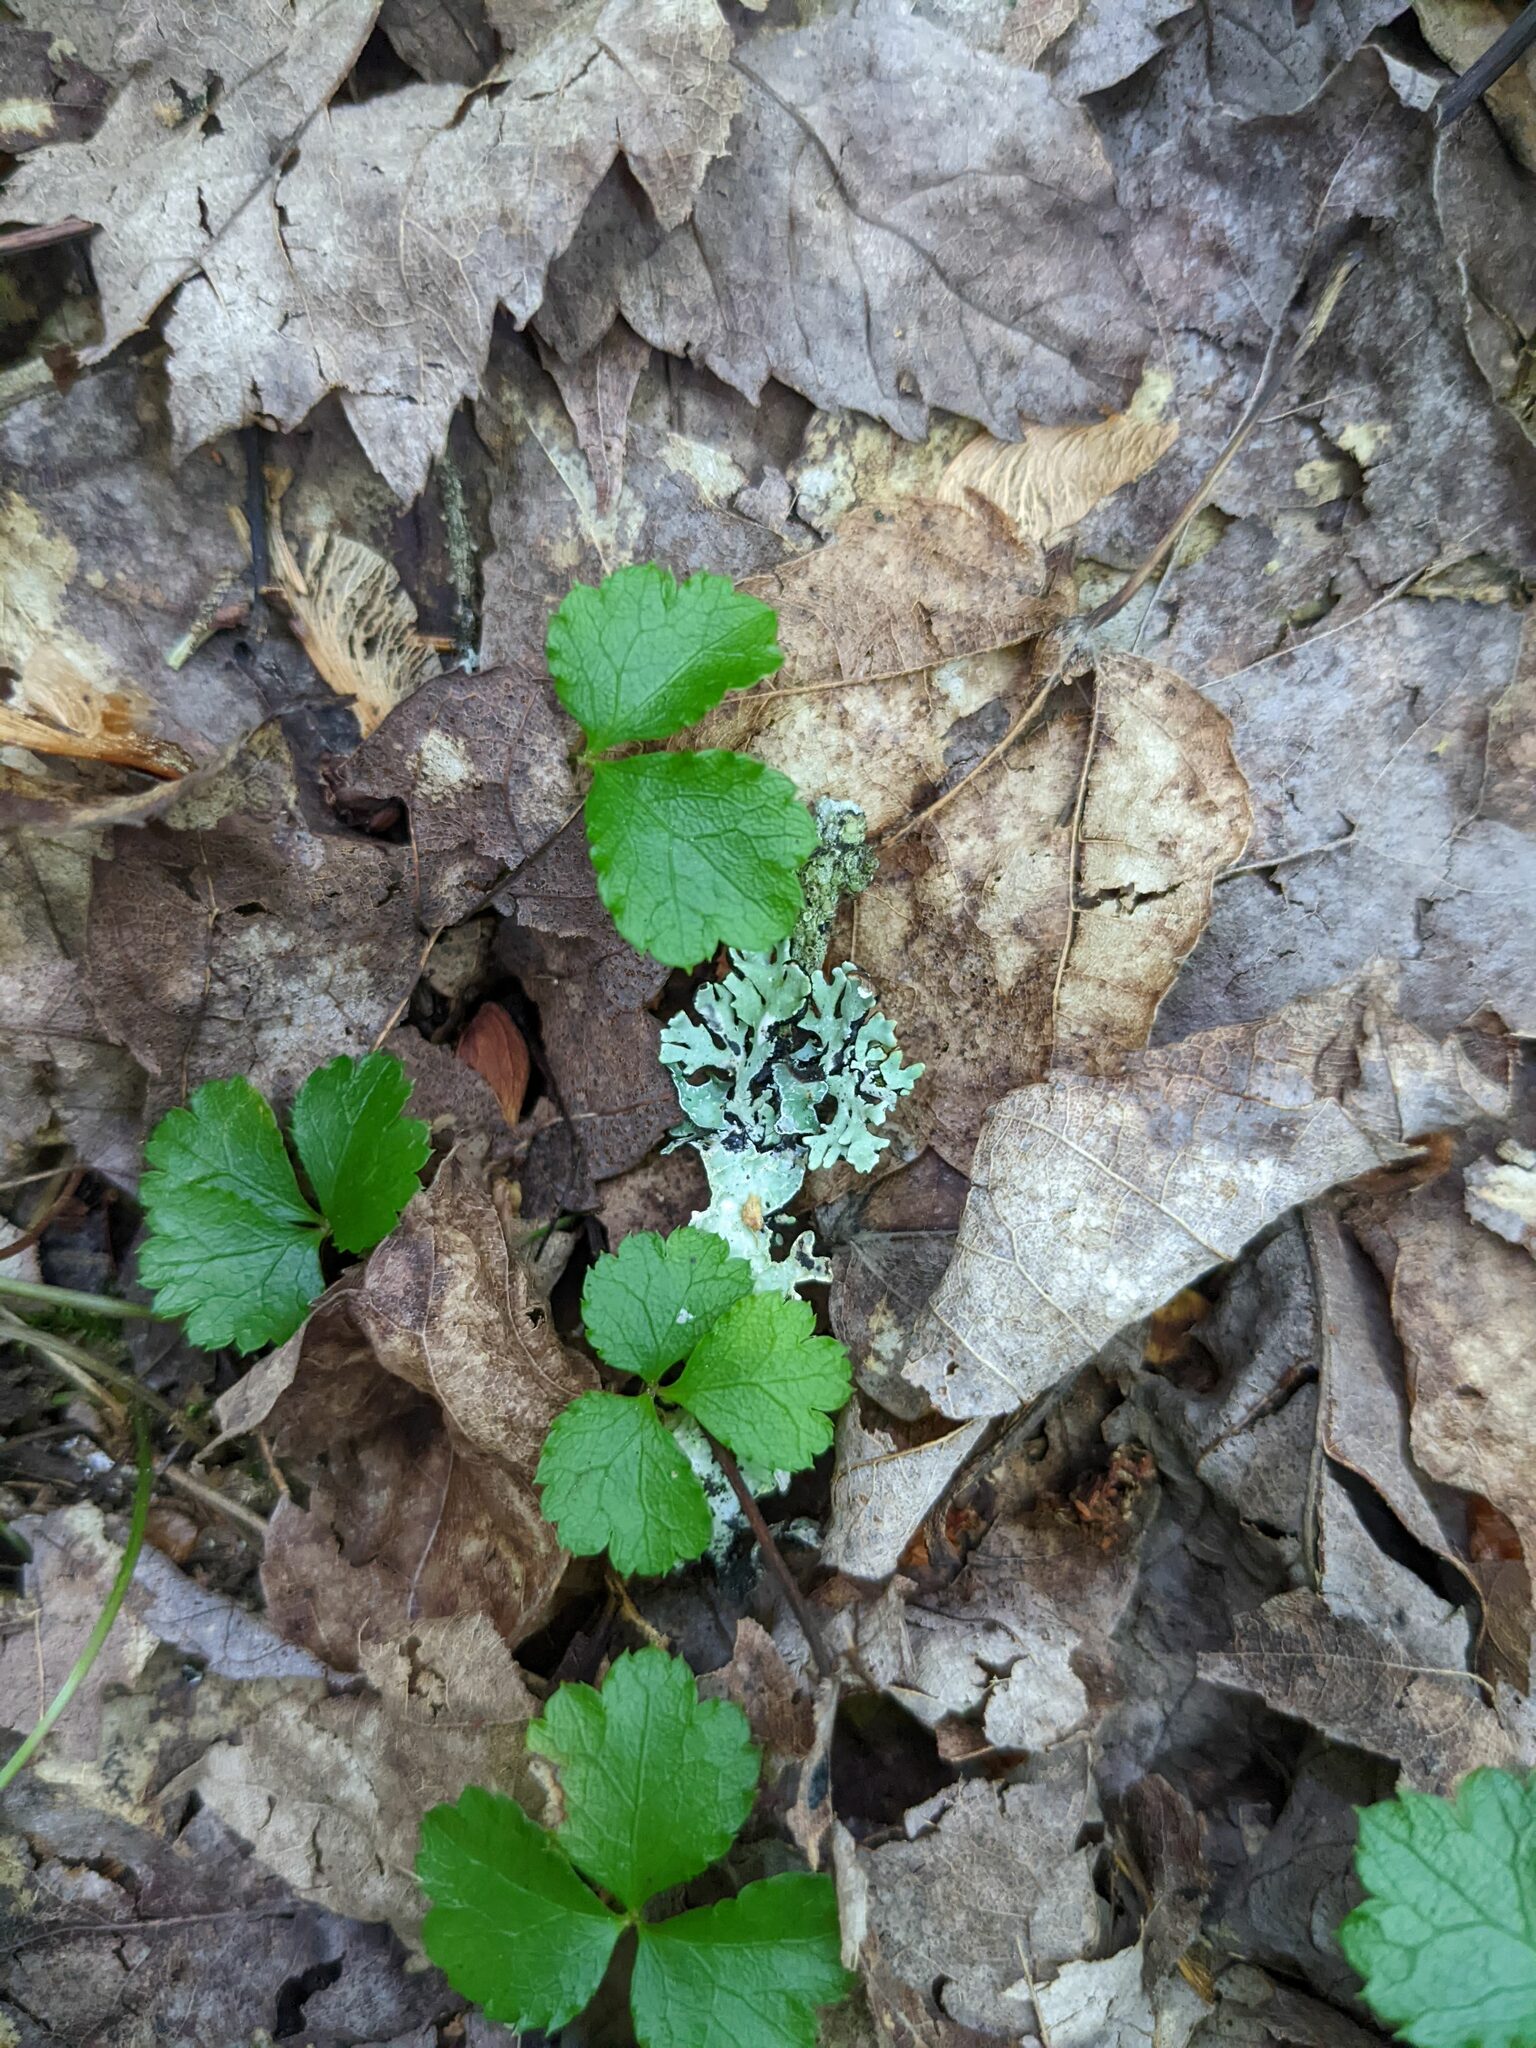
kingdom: Plantae
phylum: Tracheophyta
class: Magnoliopsida
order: Ranunculales
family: Ranunculaceae
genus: Coptis
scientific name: Coptis trifolia
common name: Canker-root
